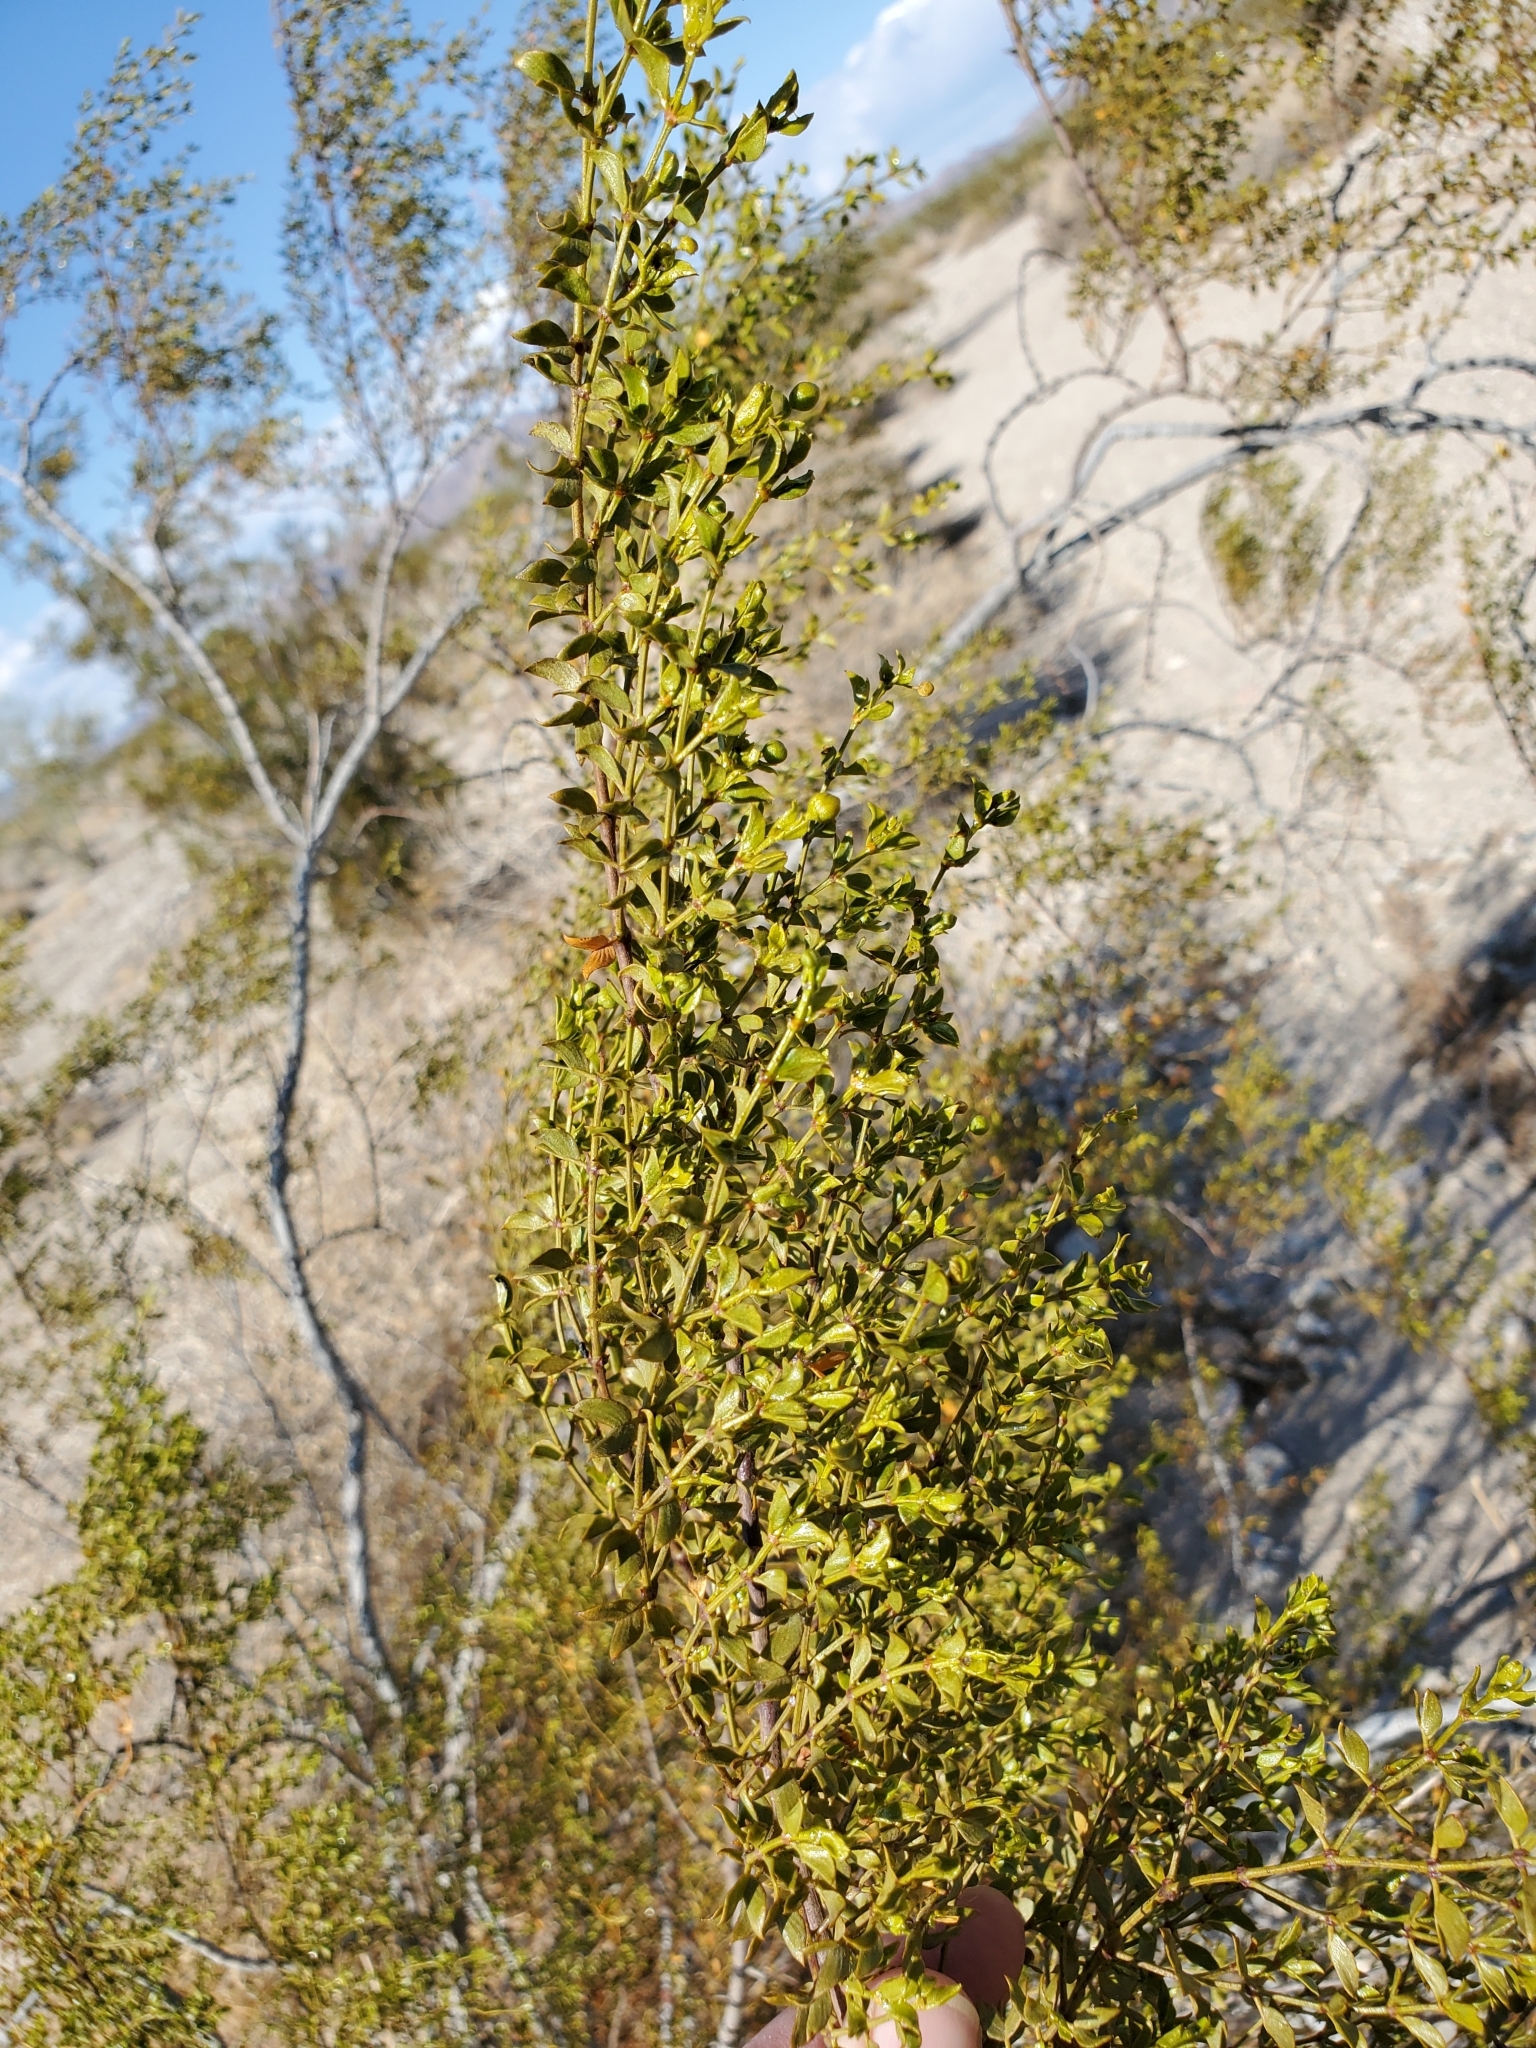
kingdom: Plantae
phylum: Tracheophyta
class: Magnoliopsida
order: Zygophyllales
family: Zygophyllaceae
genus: Larrea
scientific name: Larrea tridentata
